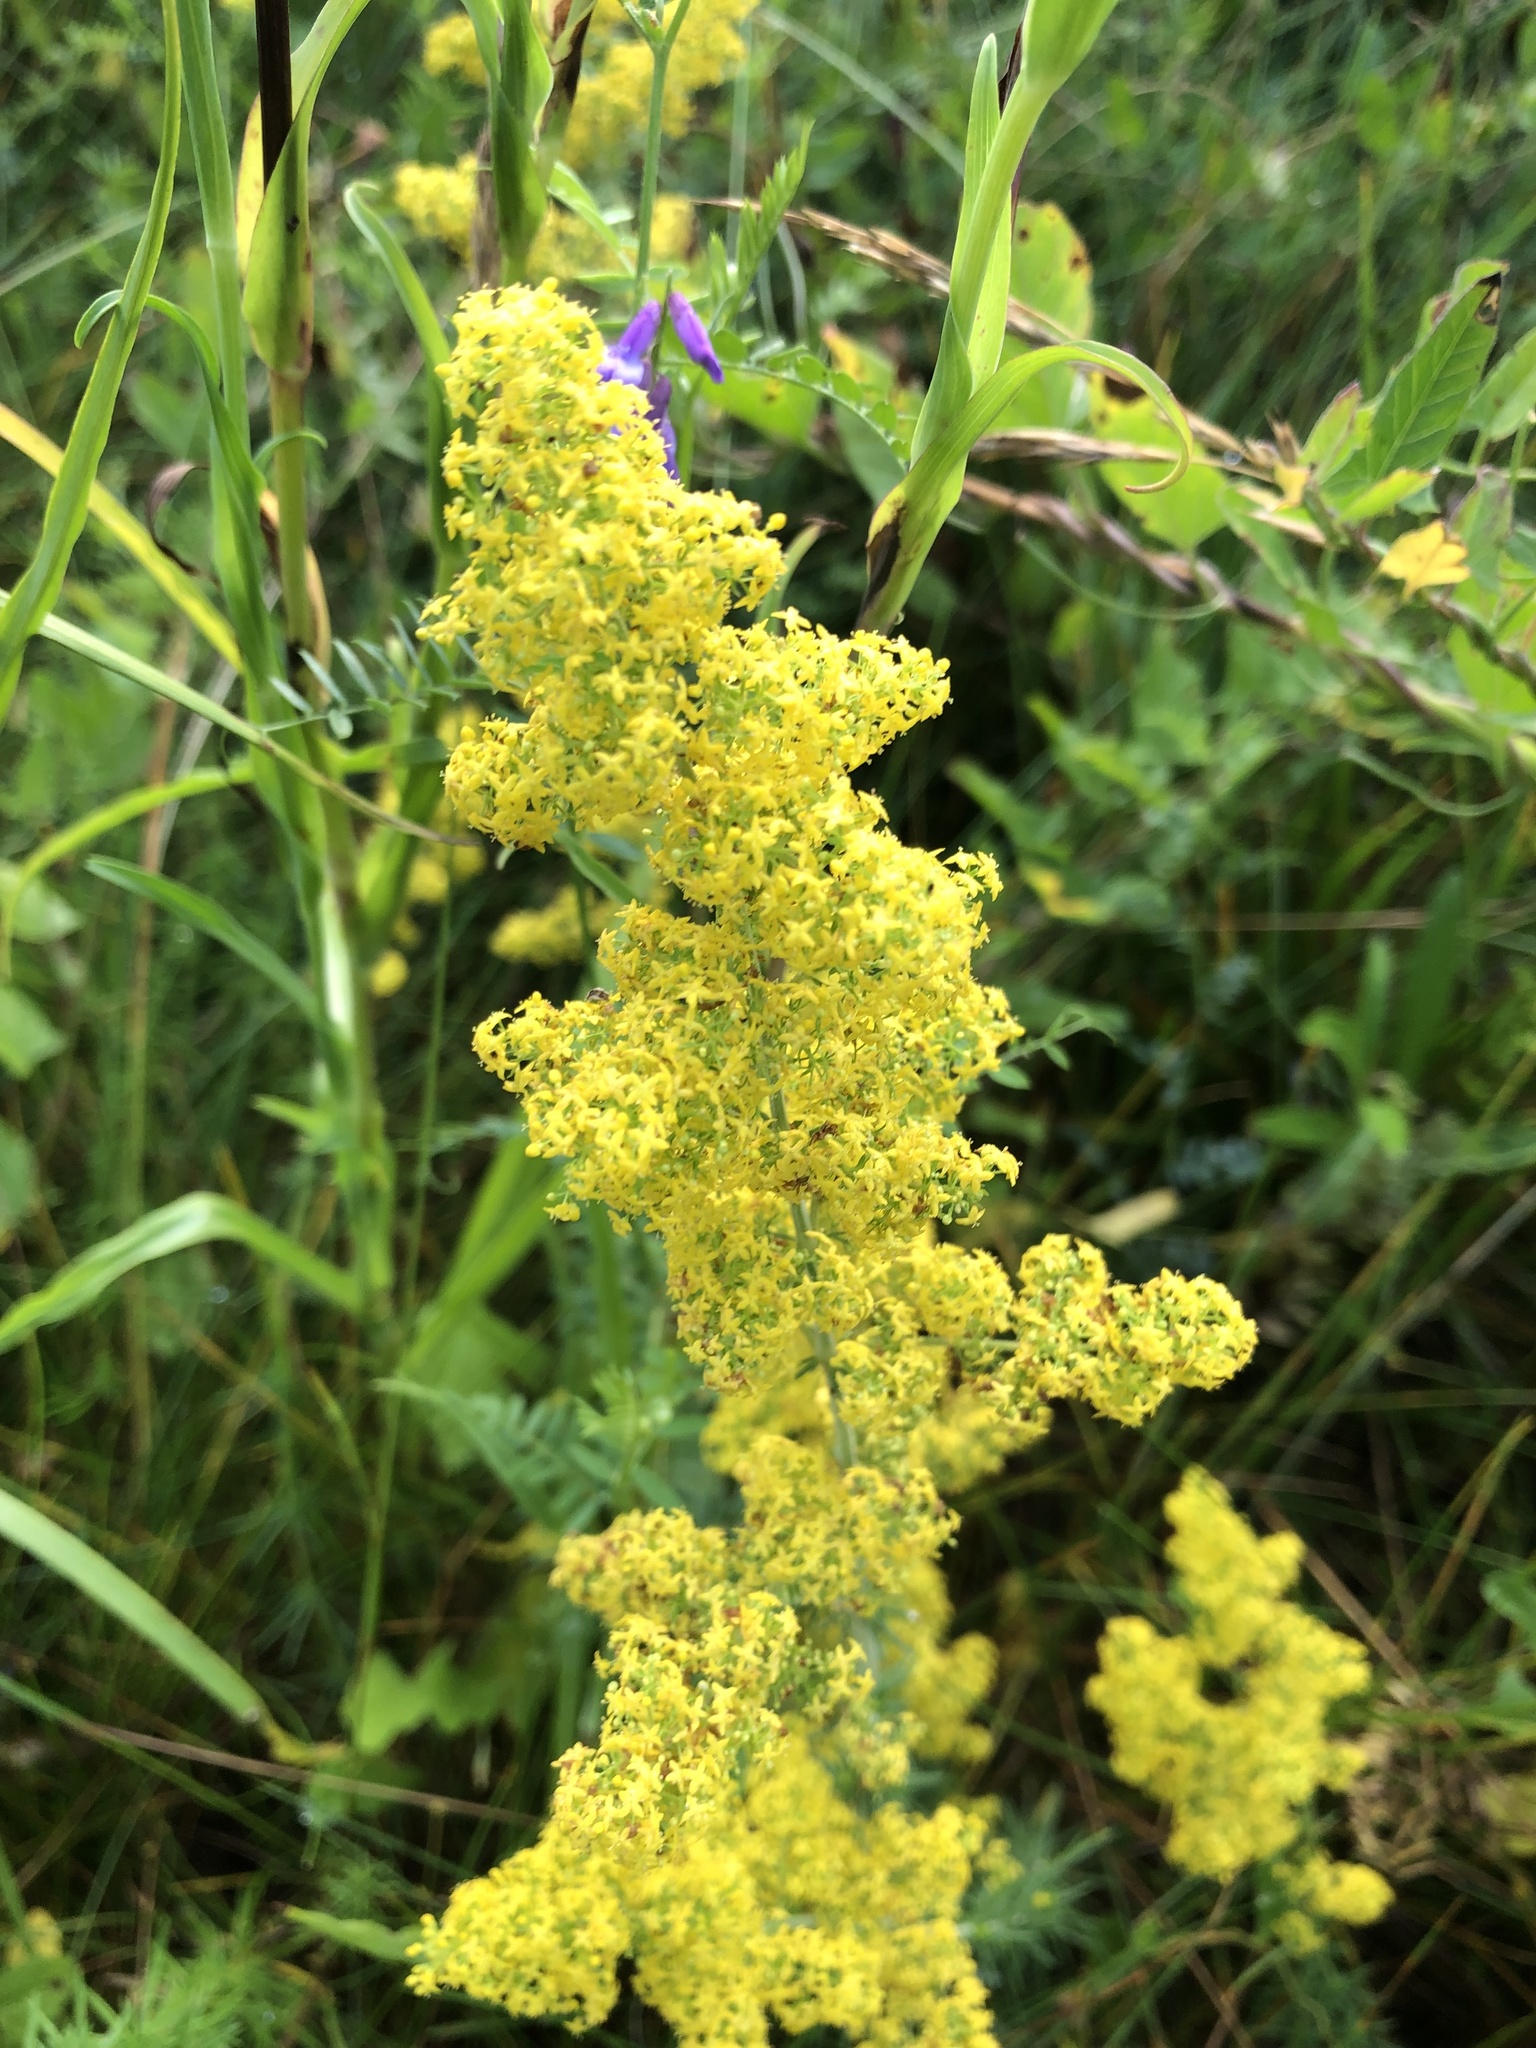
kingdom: Plantae
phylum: Tracheophyta
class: Magnoliopsida
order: Gentianales
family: Rubiaceae
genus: Galium
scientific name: Galium verum
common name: Lady's bedstraw
